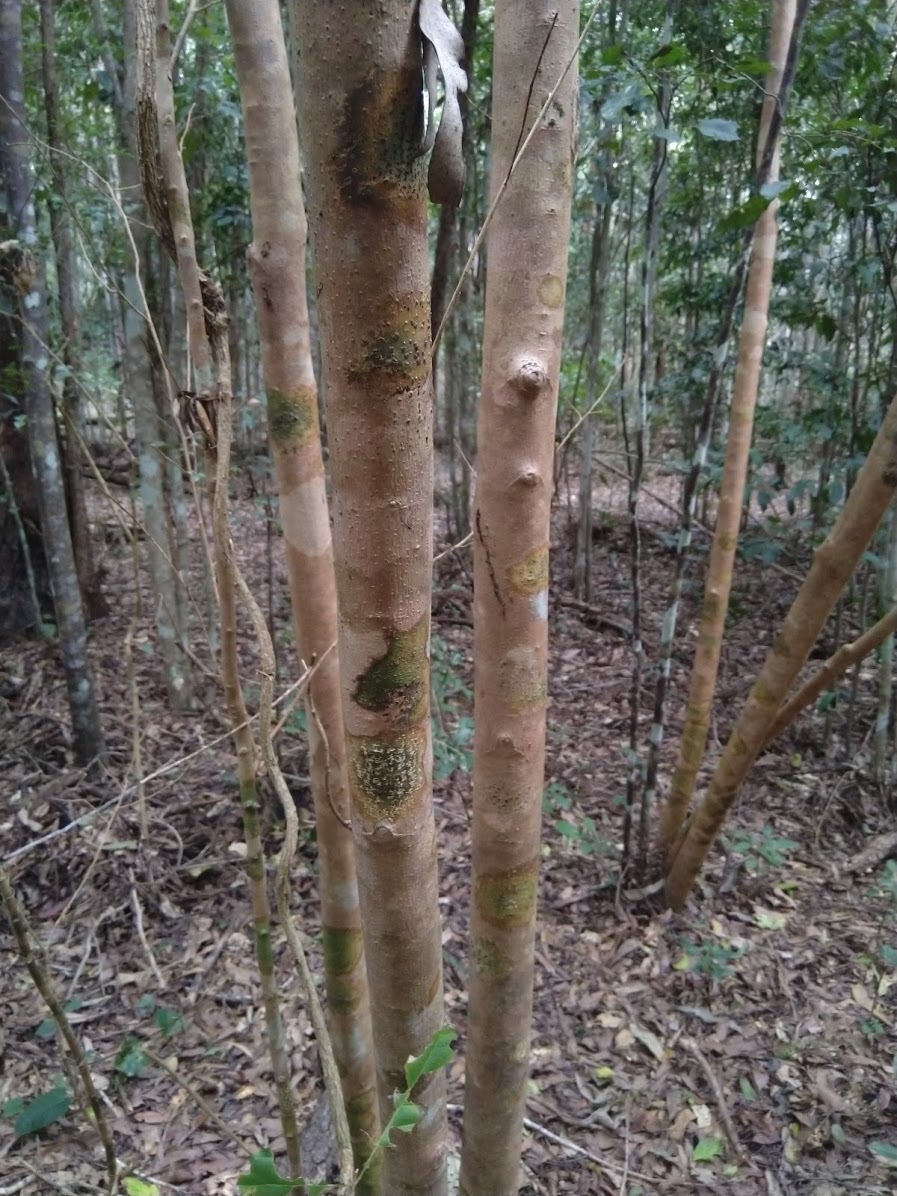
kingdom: Plantae
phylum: Tracheophyta
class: Magnoliopsida
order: Sapindales
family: Meliaceae
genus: Turraea
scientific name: Turraea pubescens
